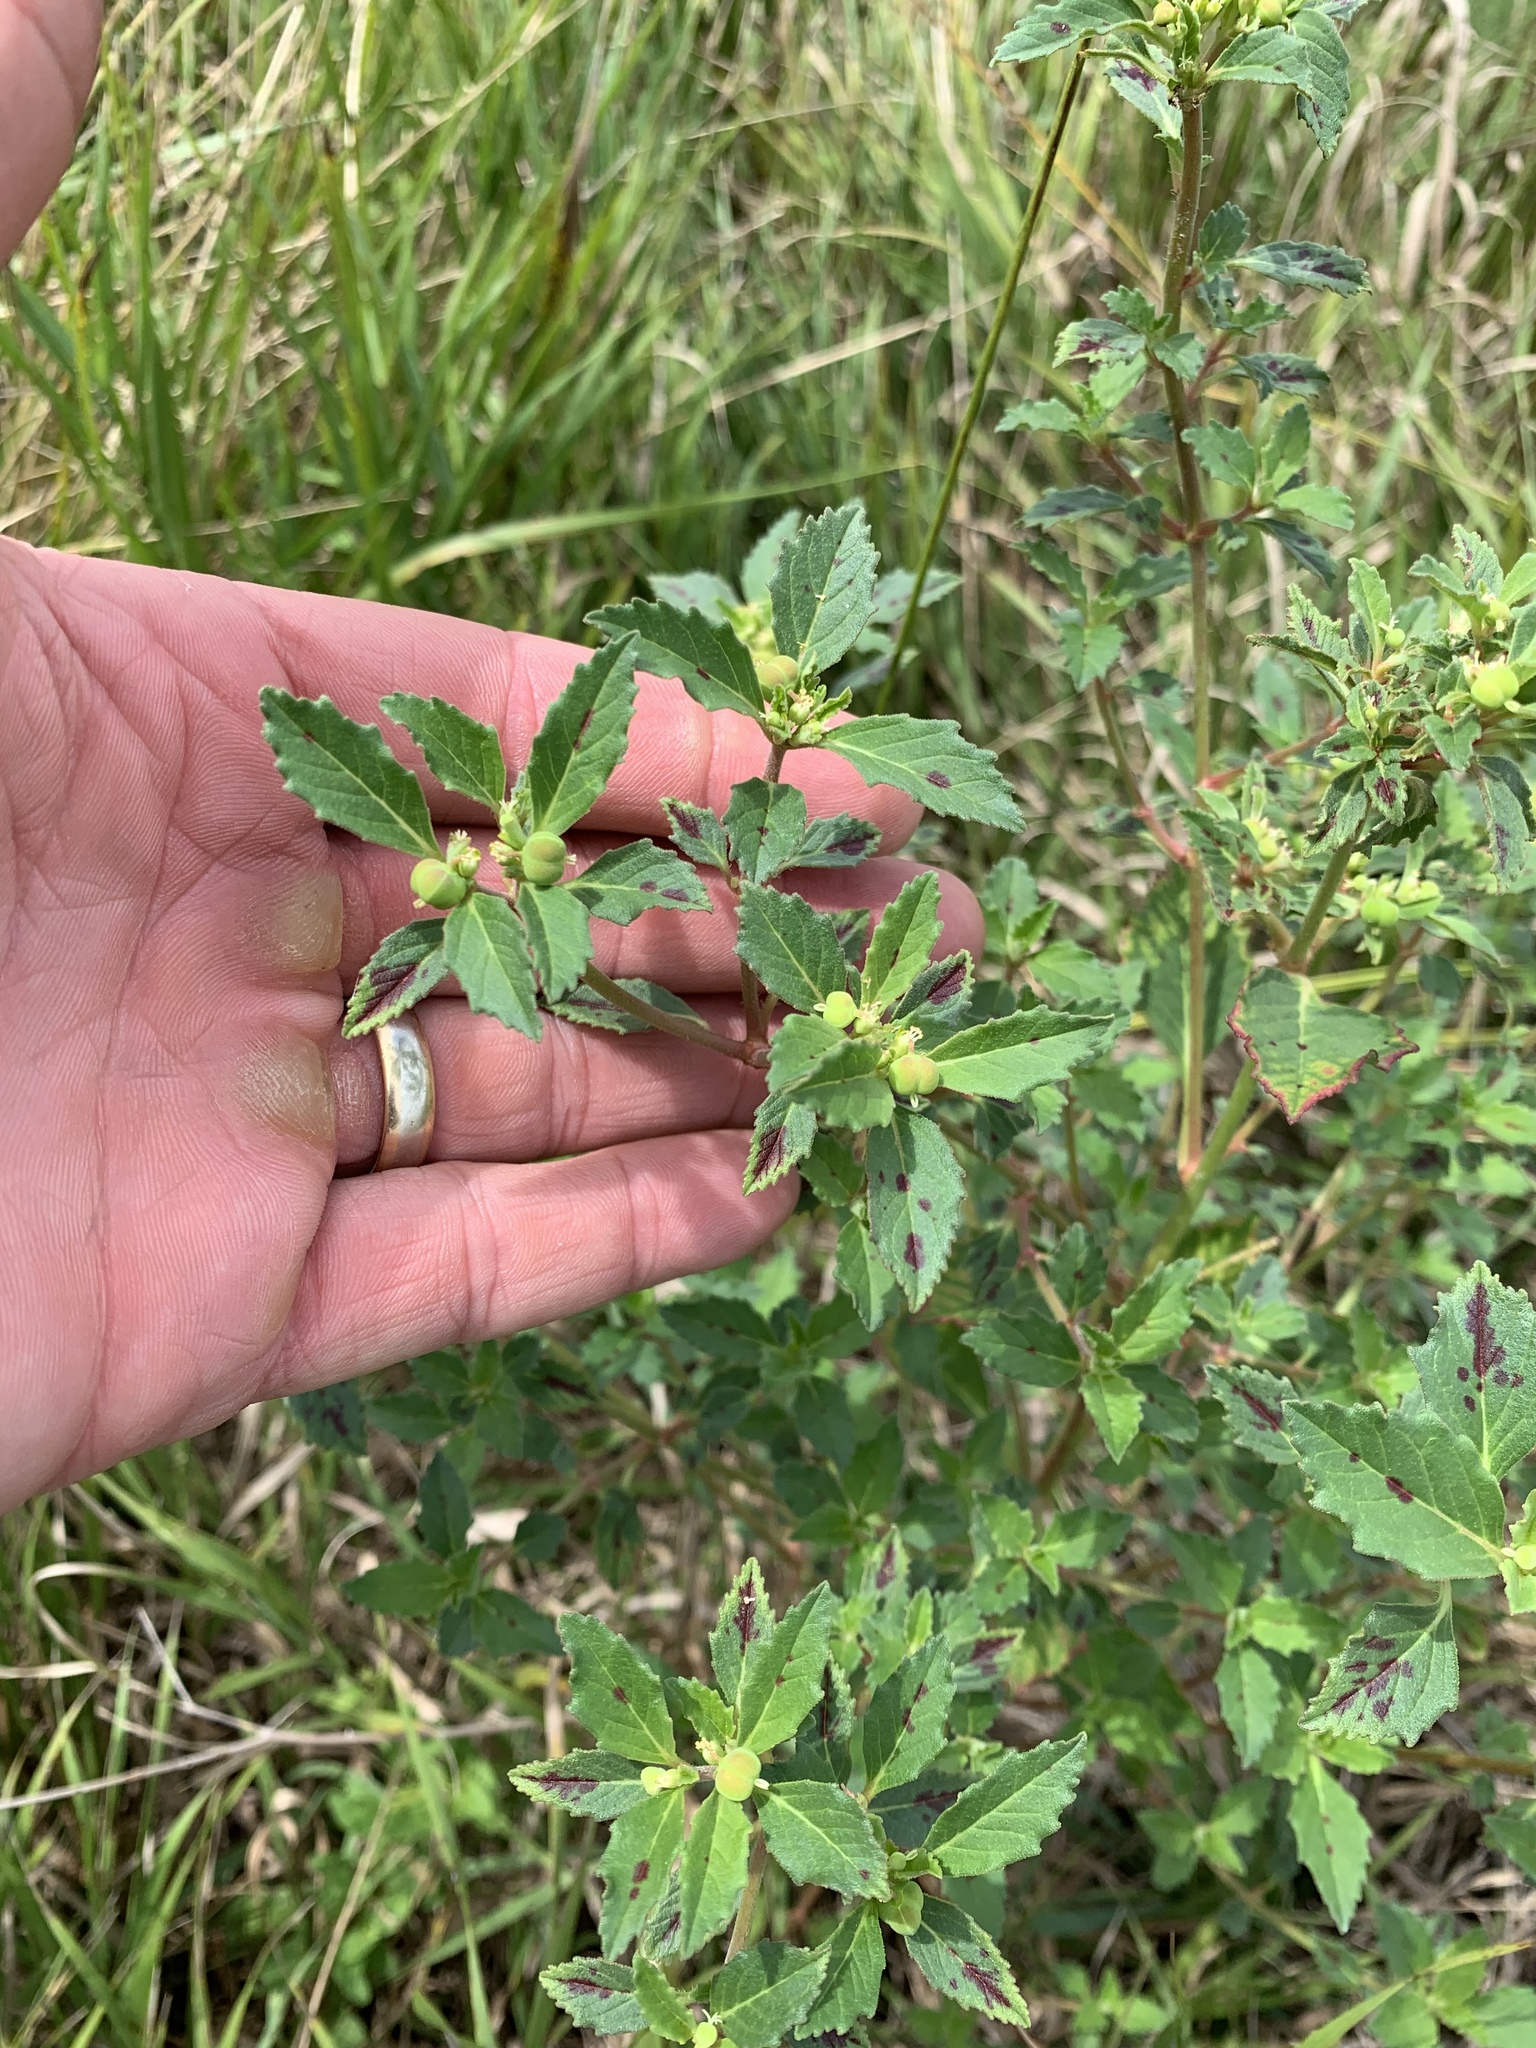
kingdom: Plantae
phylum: Tracheophyta
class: Magnoliopsida
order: Malpighiales
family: Euphorbiaceae
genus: Euphorbia
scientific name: Euphorbia davidii
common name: David's spurge
